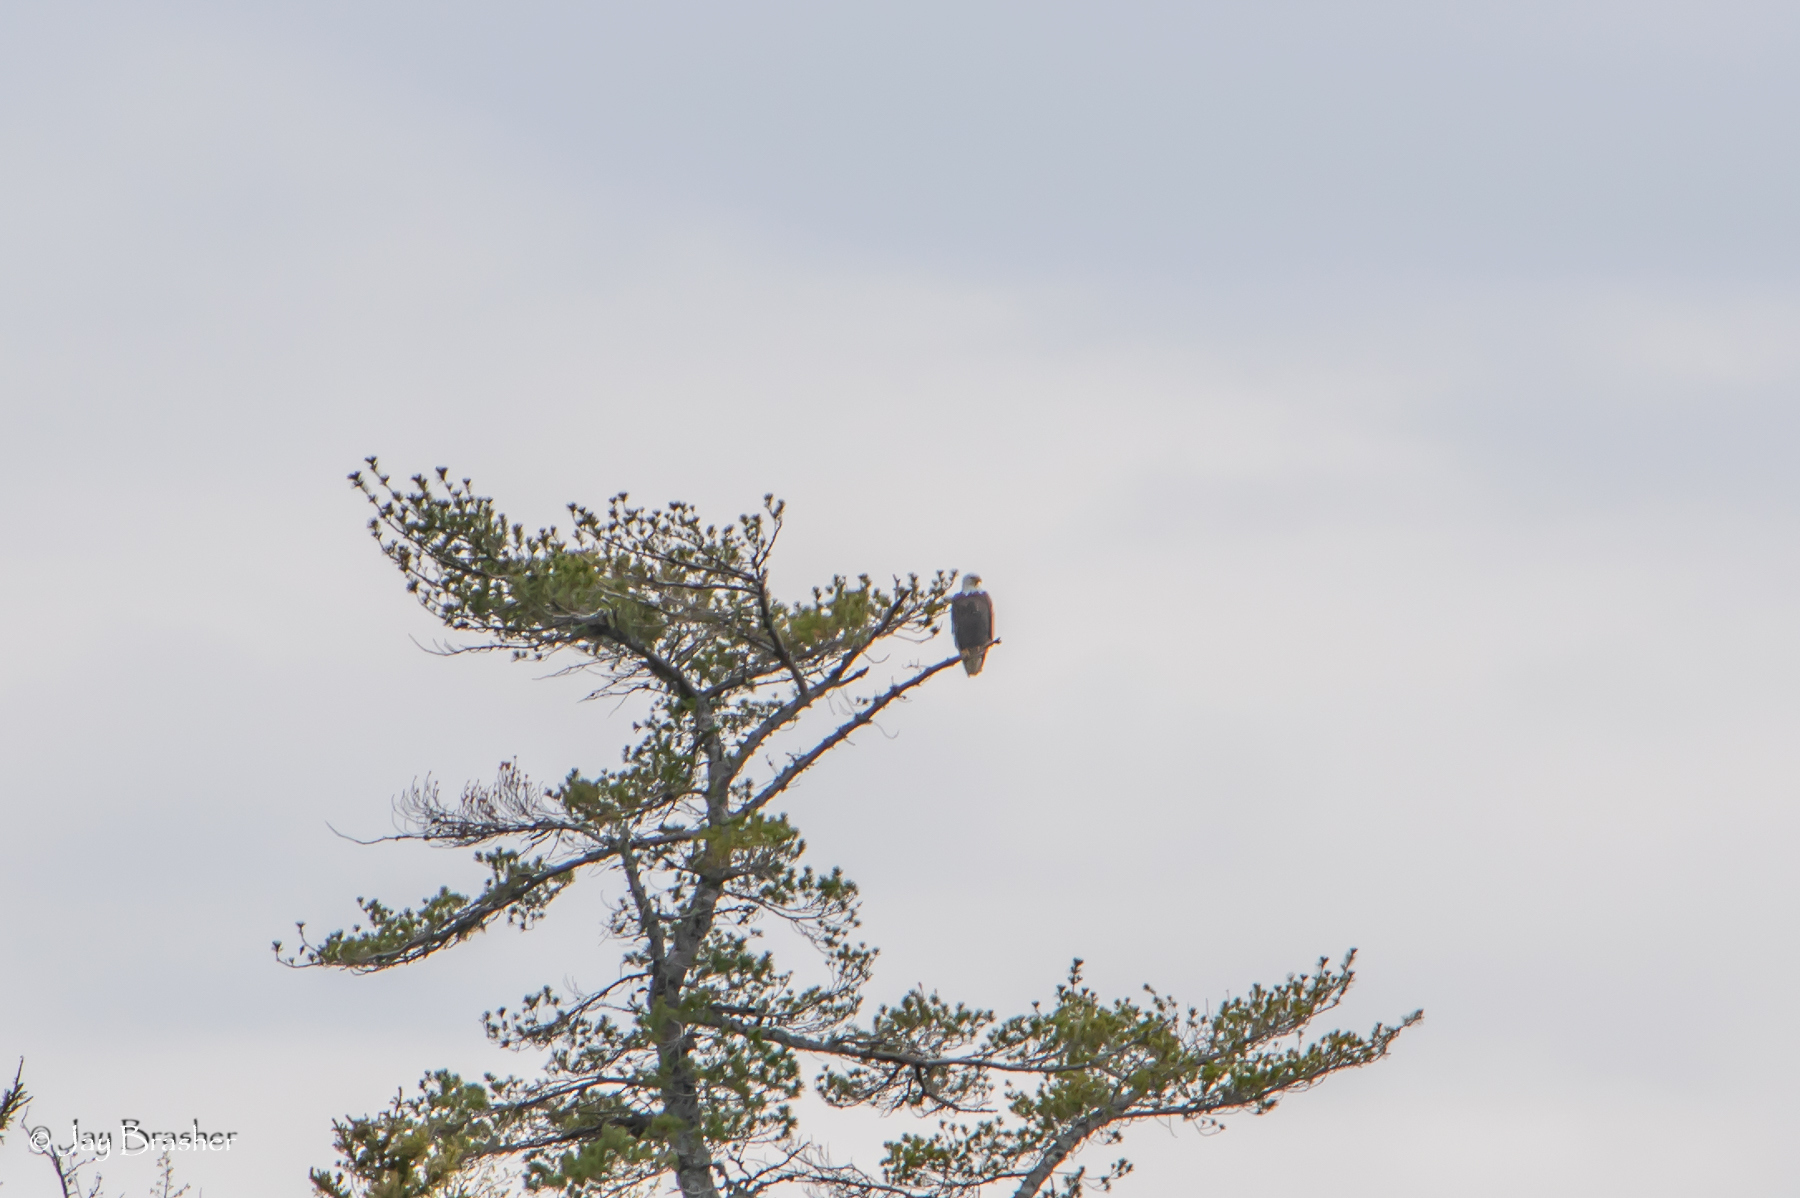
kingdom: Animalia
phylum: Chordata
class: Aves
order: Accipitriformes
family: Accipitridae
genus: Haliaeetus
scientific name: Haliaeetus leucocephalus
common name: Bald eagle
